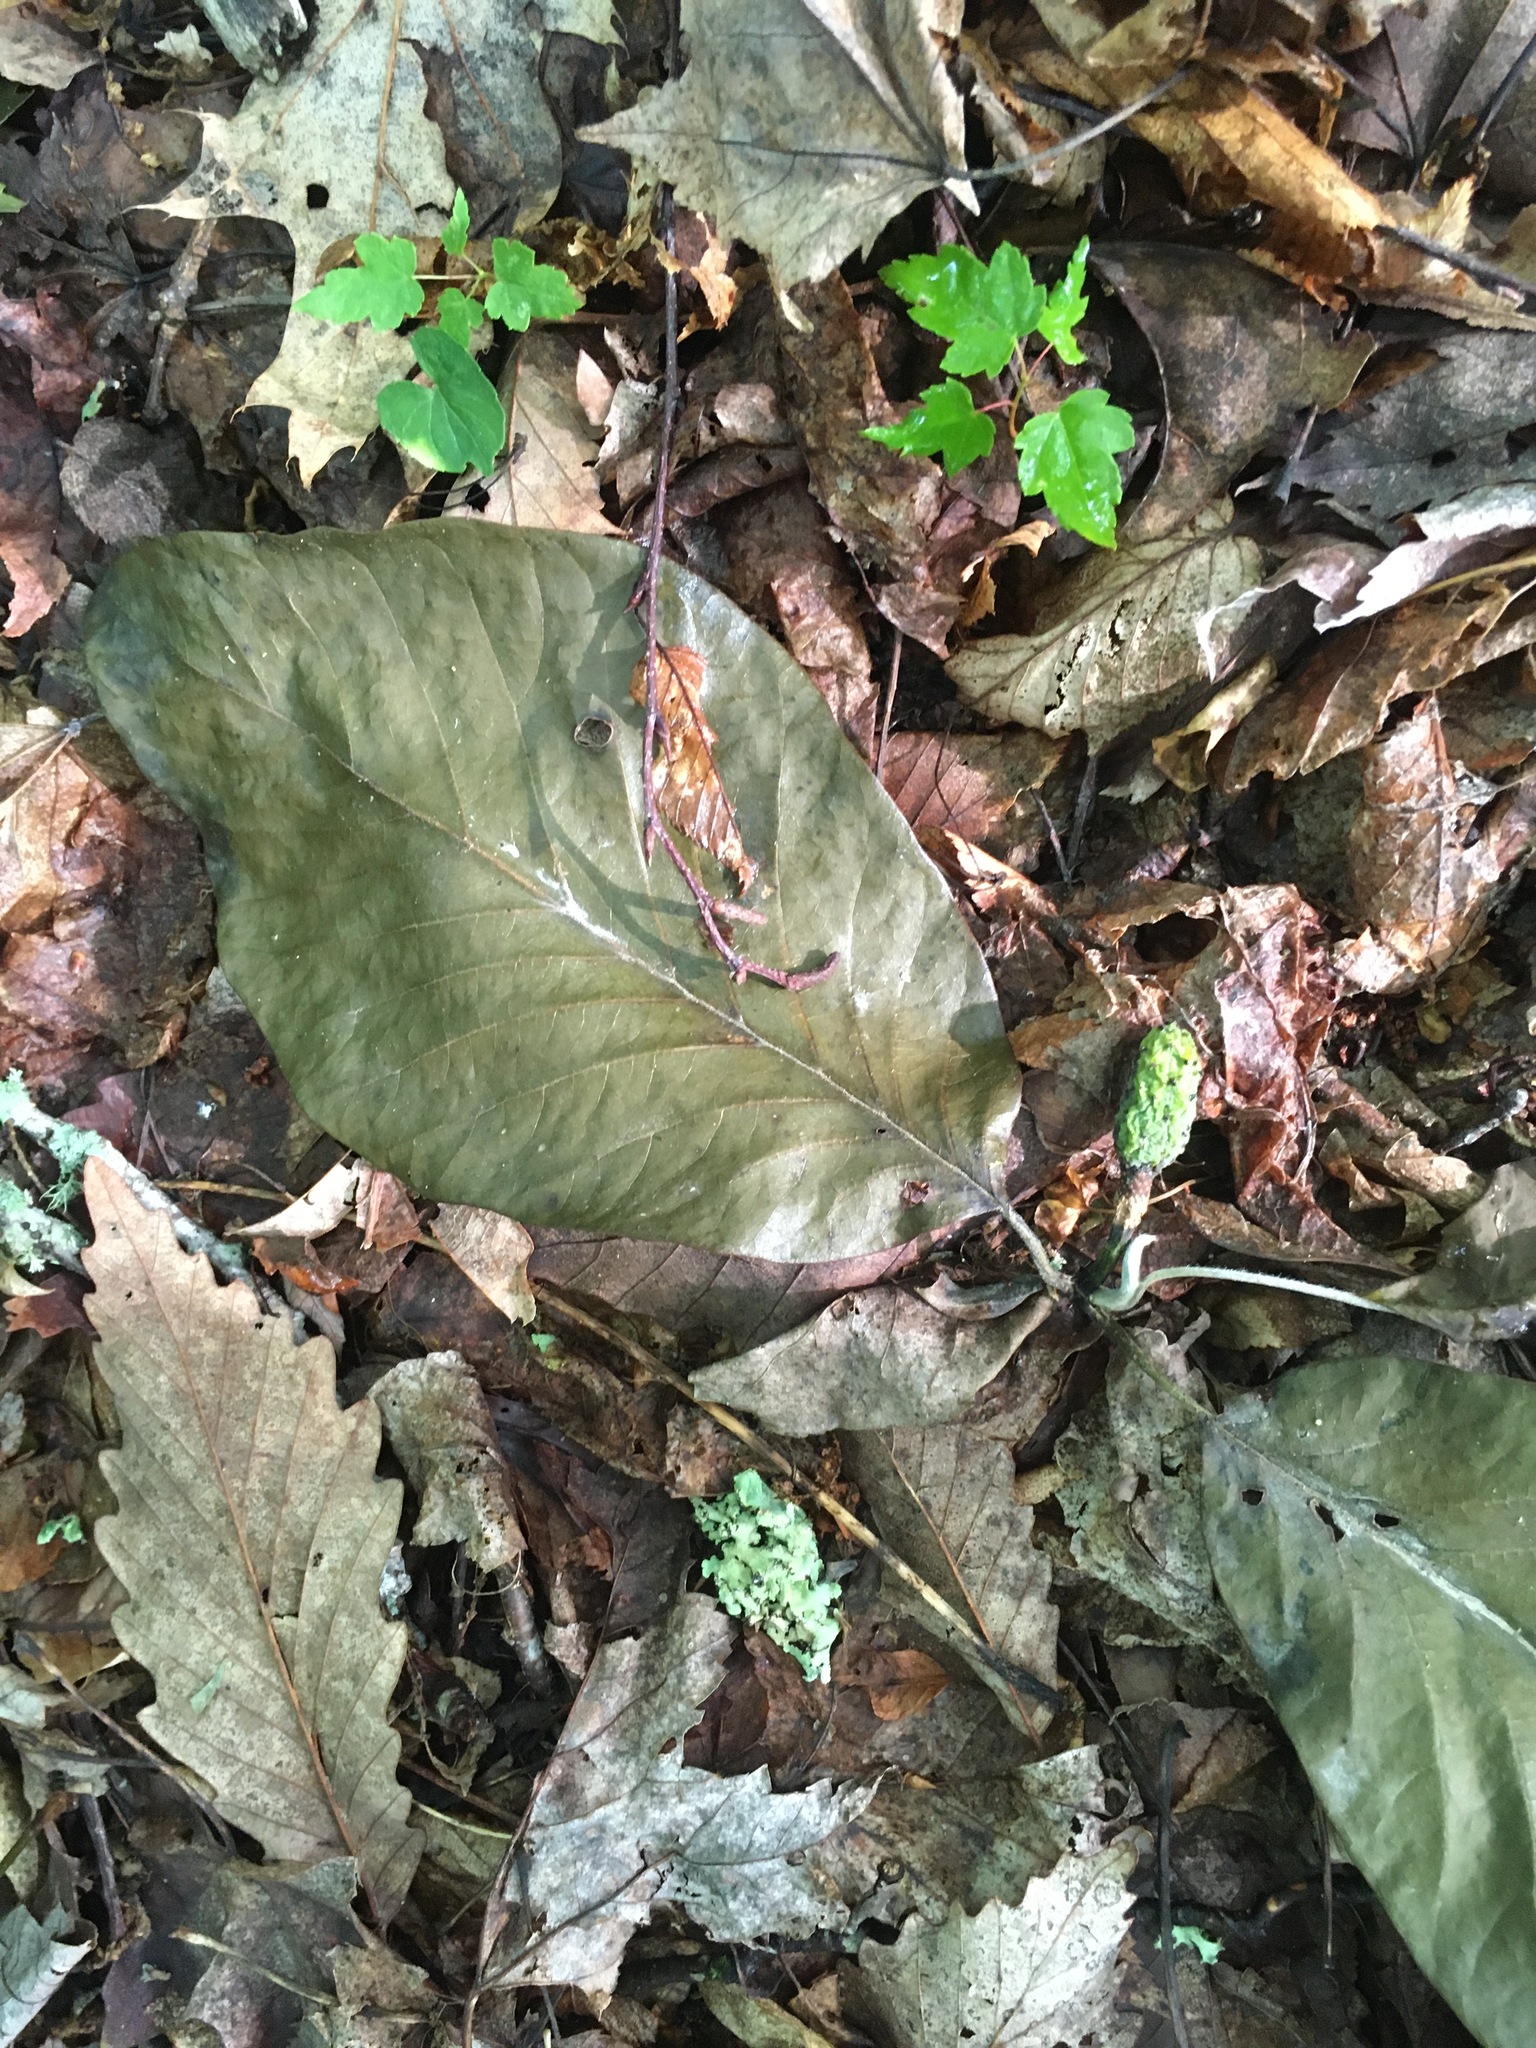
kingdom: Plantae
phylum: Tracheophyta
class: Magnoliopsida
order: Magnoliales
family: Magnoliaceae
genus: Magnolia
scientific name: Magnolia acuminata
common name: Cucumber magnolia
